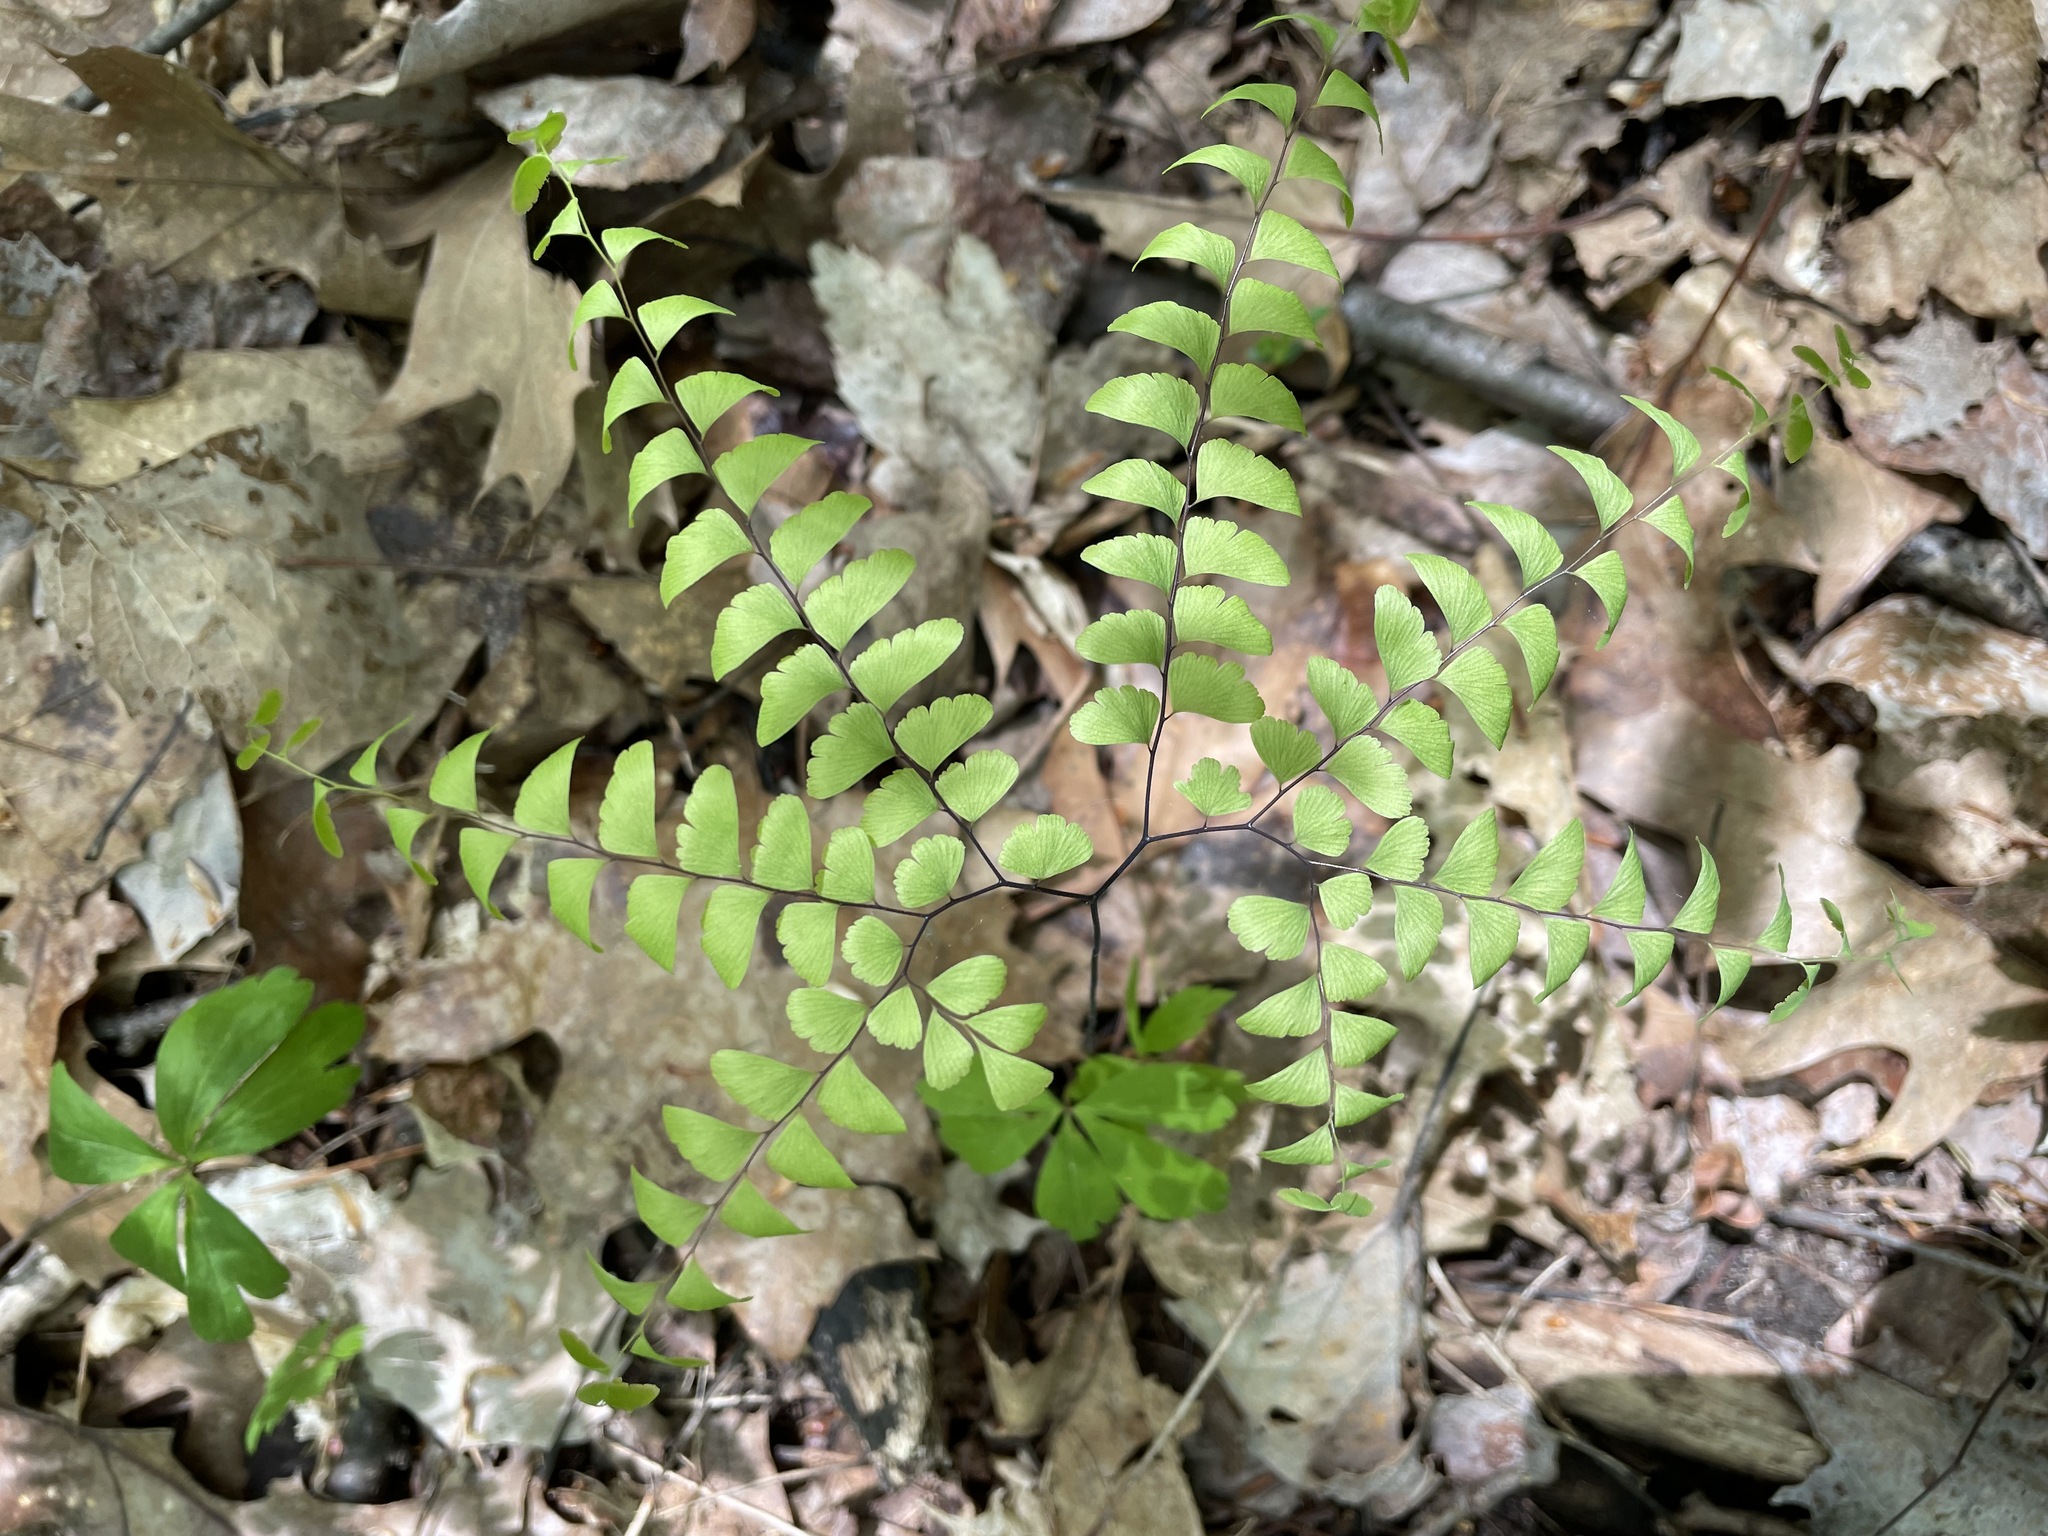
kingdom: Plantae
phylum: Tracheophyta
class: Polypodiopsida
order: Polypodiales
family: Pteridaceae
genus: Adiantum
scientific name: Adiantum pedatum
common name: Five-finger fern
